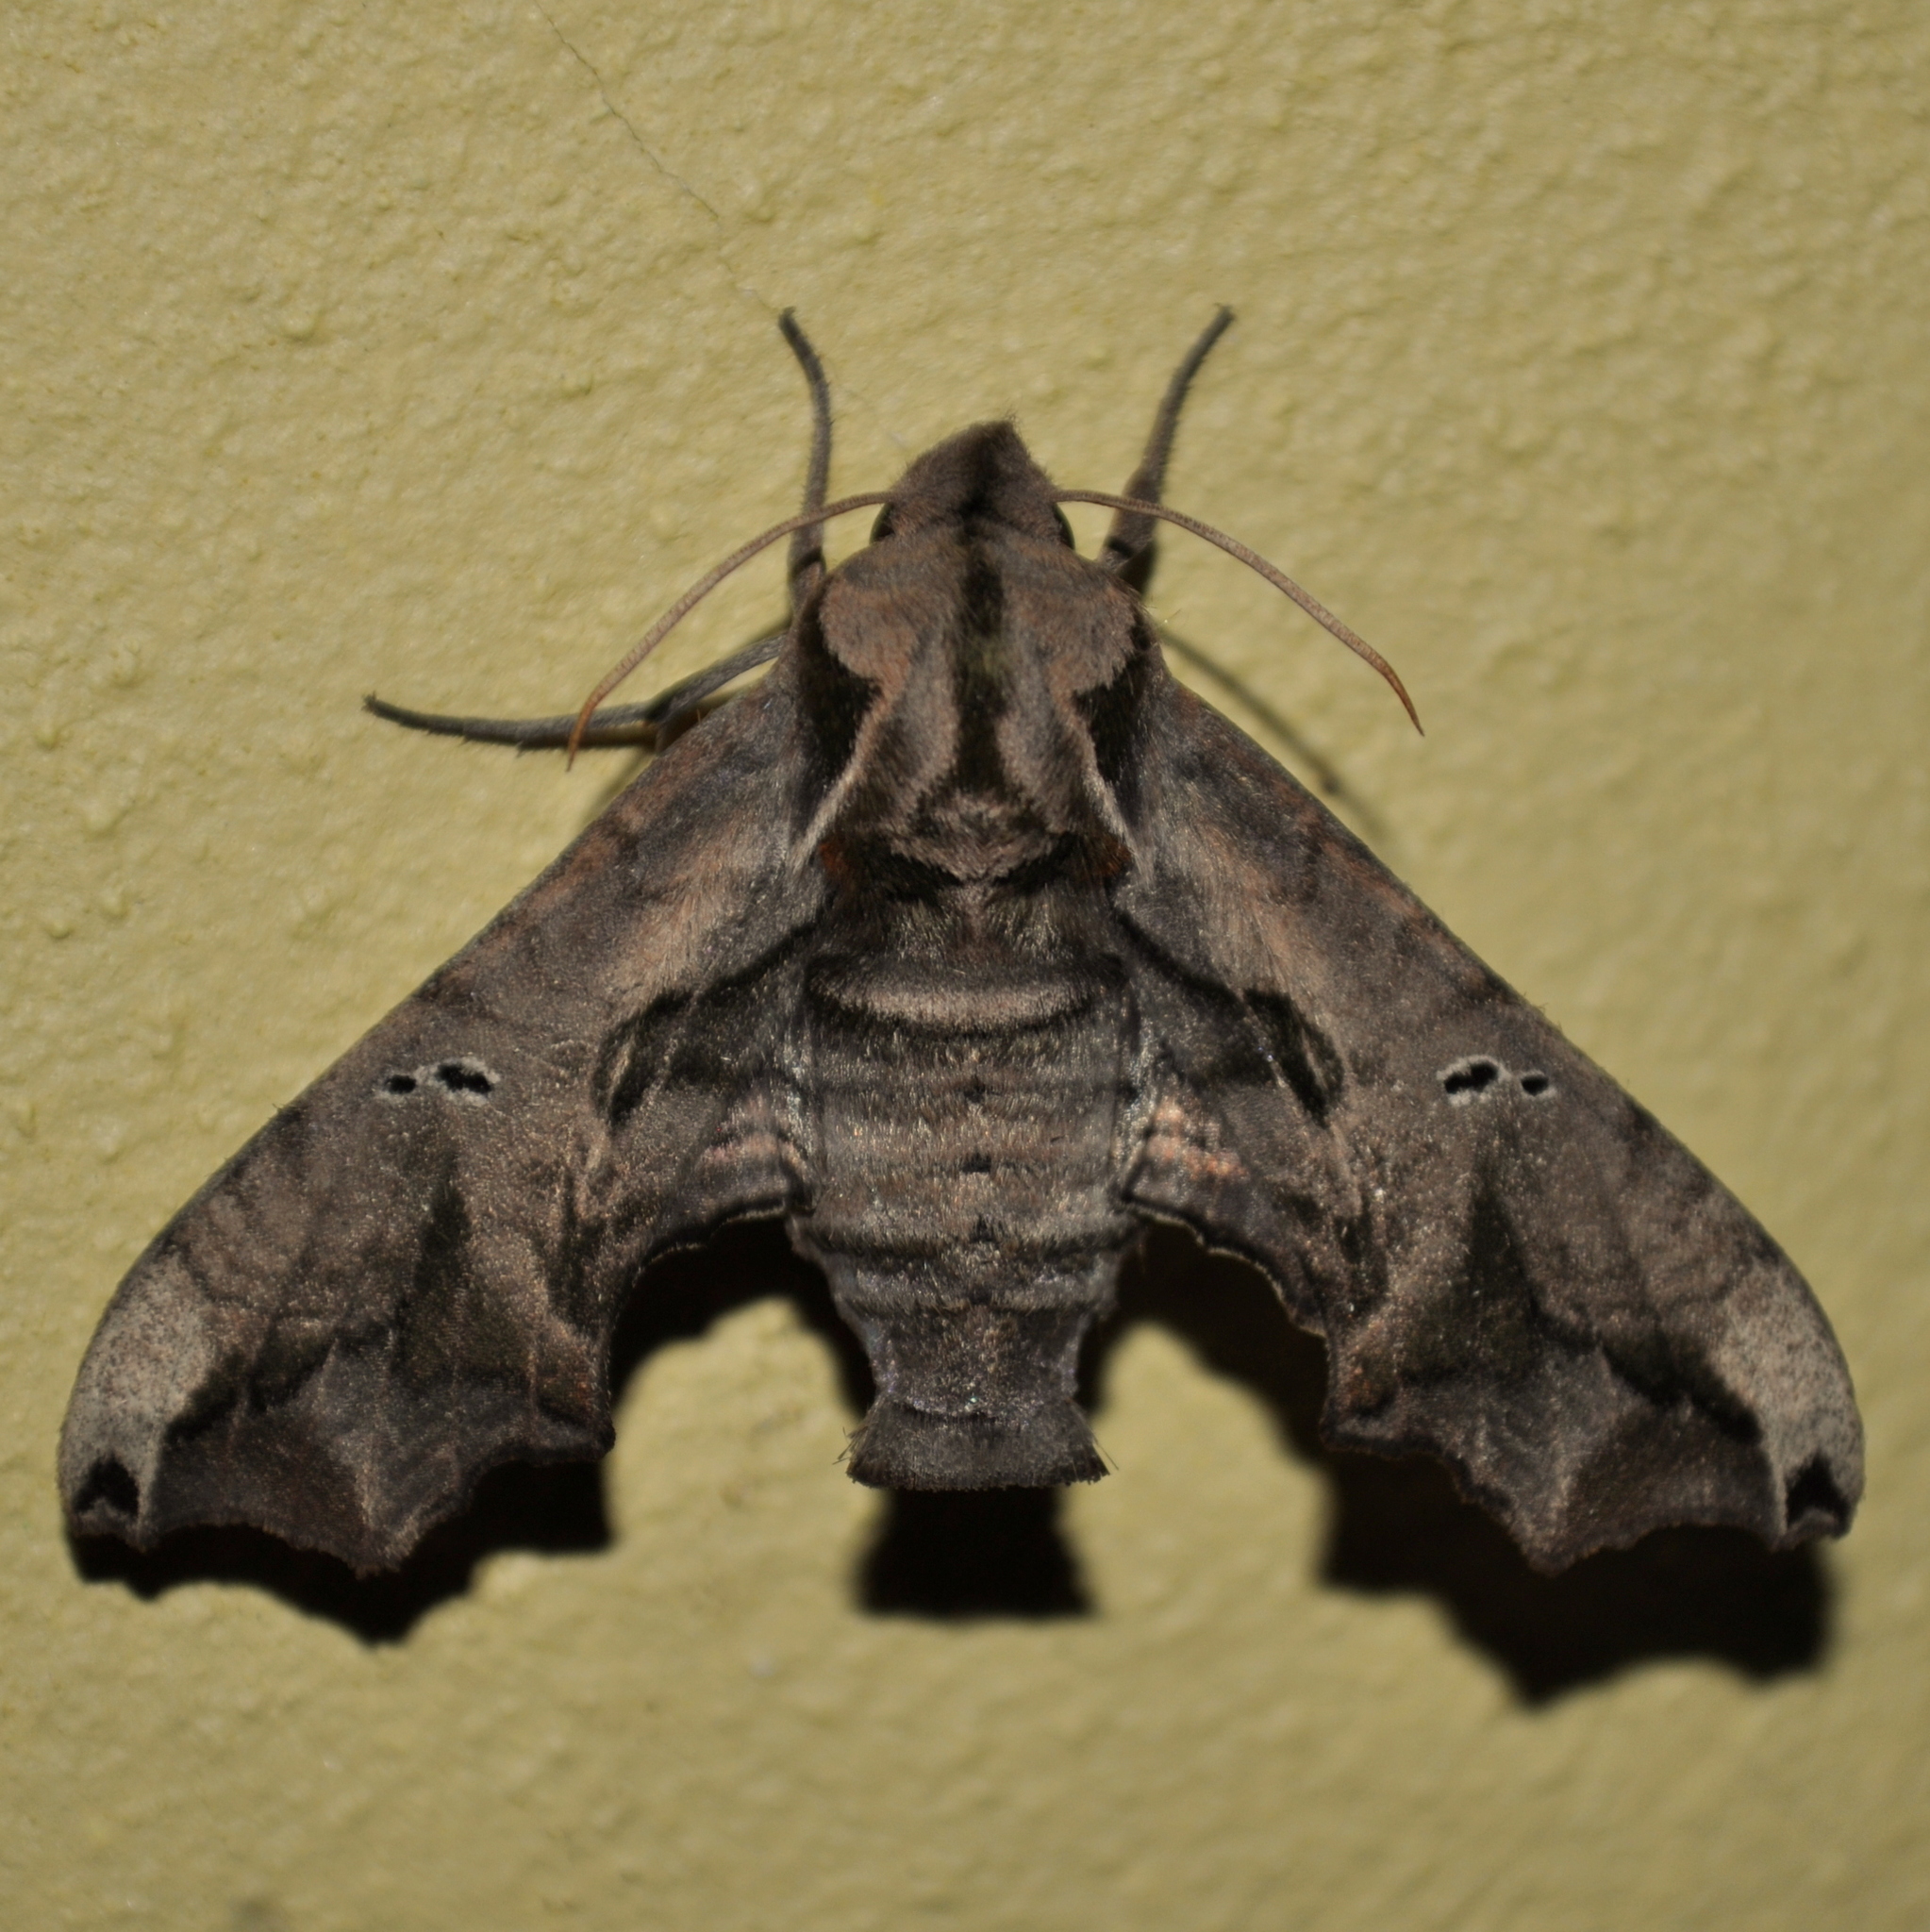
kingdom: Animalia
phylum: Arthropoda
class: Insecta
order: Lepidoptera
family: Sphingidae
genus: Nyceryx
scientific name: Nyceryx alophus
